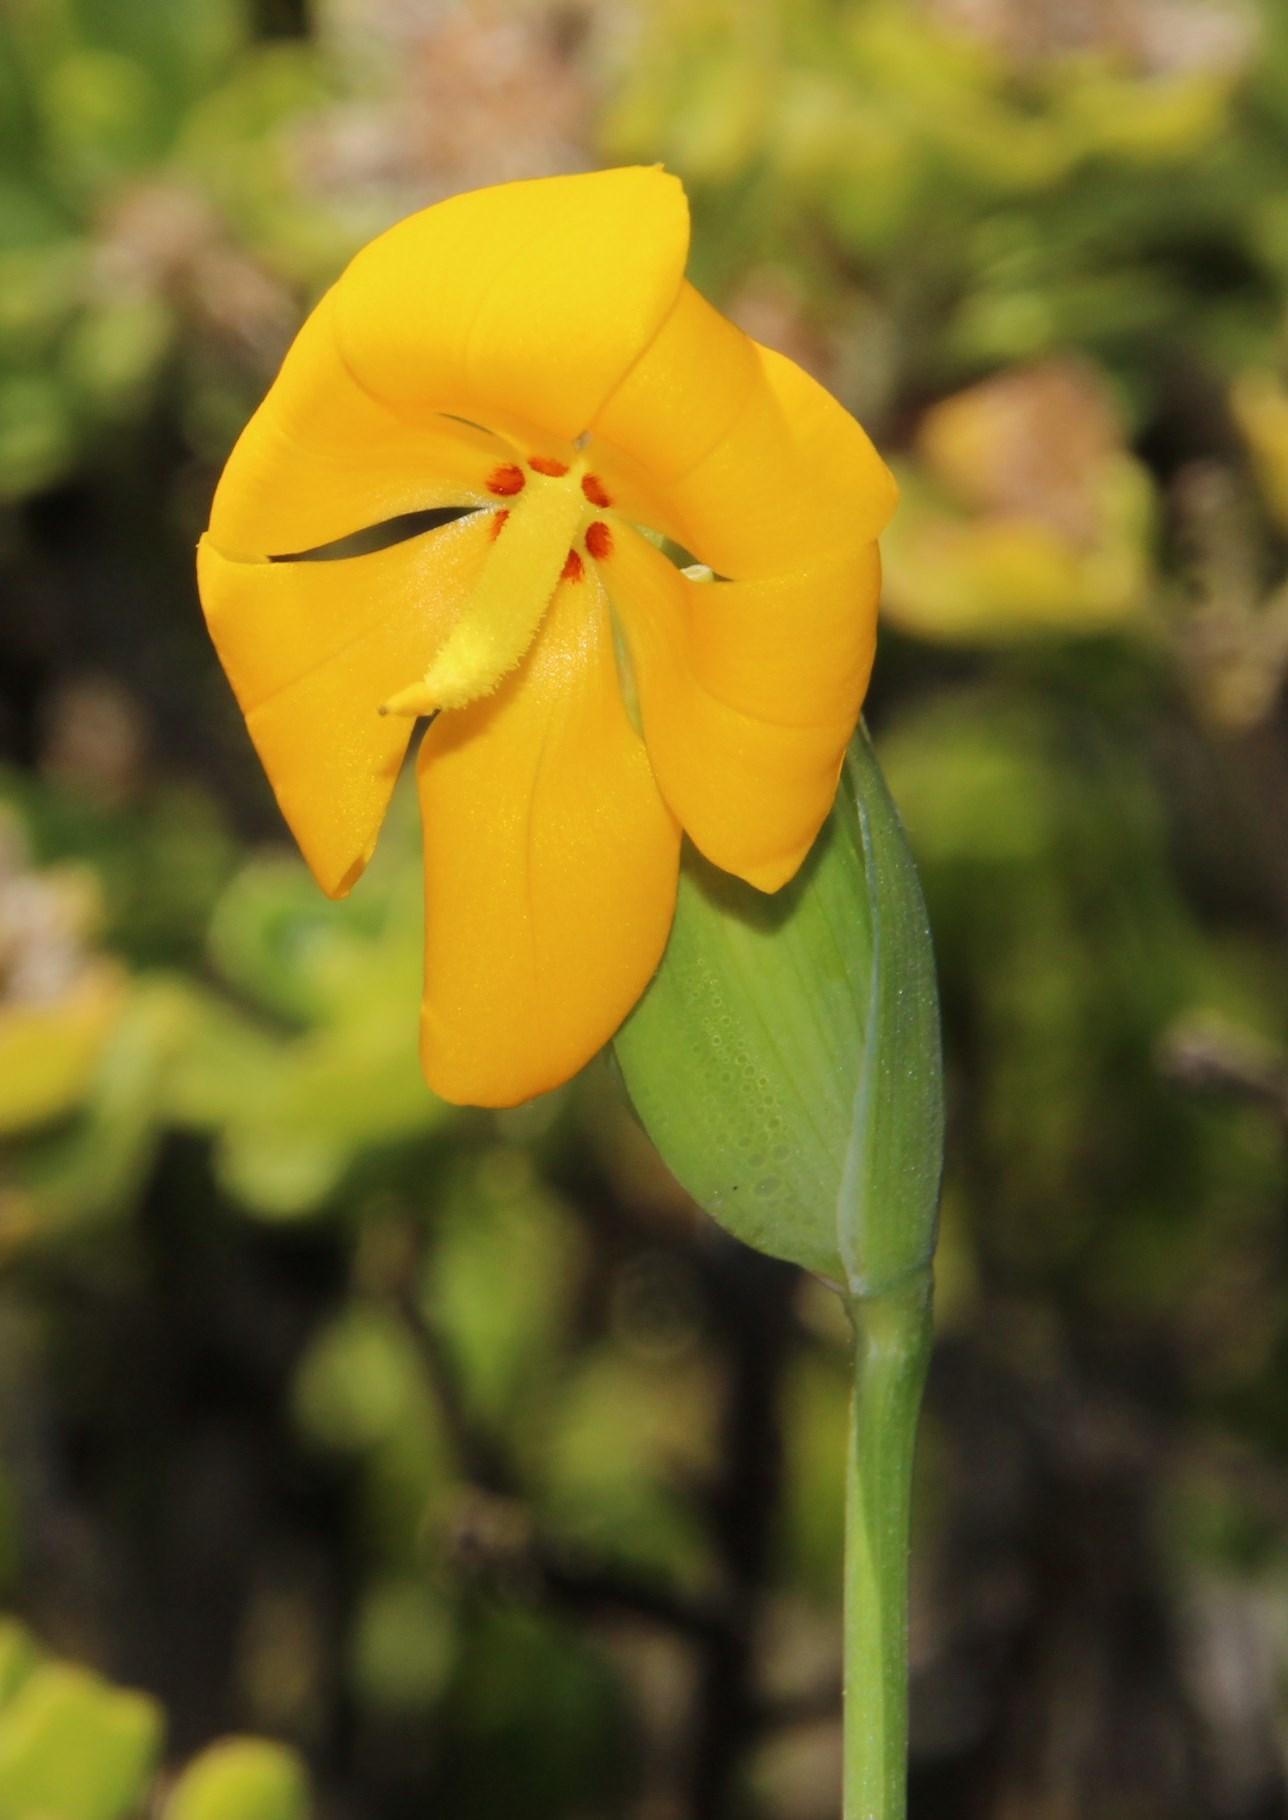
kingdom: Plantae
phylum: Tracheophyta
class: Liliopsida
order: Asparagales
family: Iridaceae
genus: Solenomelus
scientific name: Solenomelus pedunculatus
